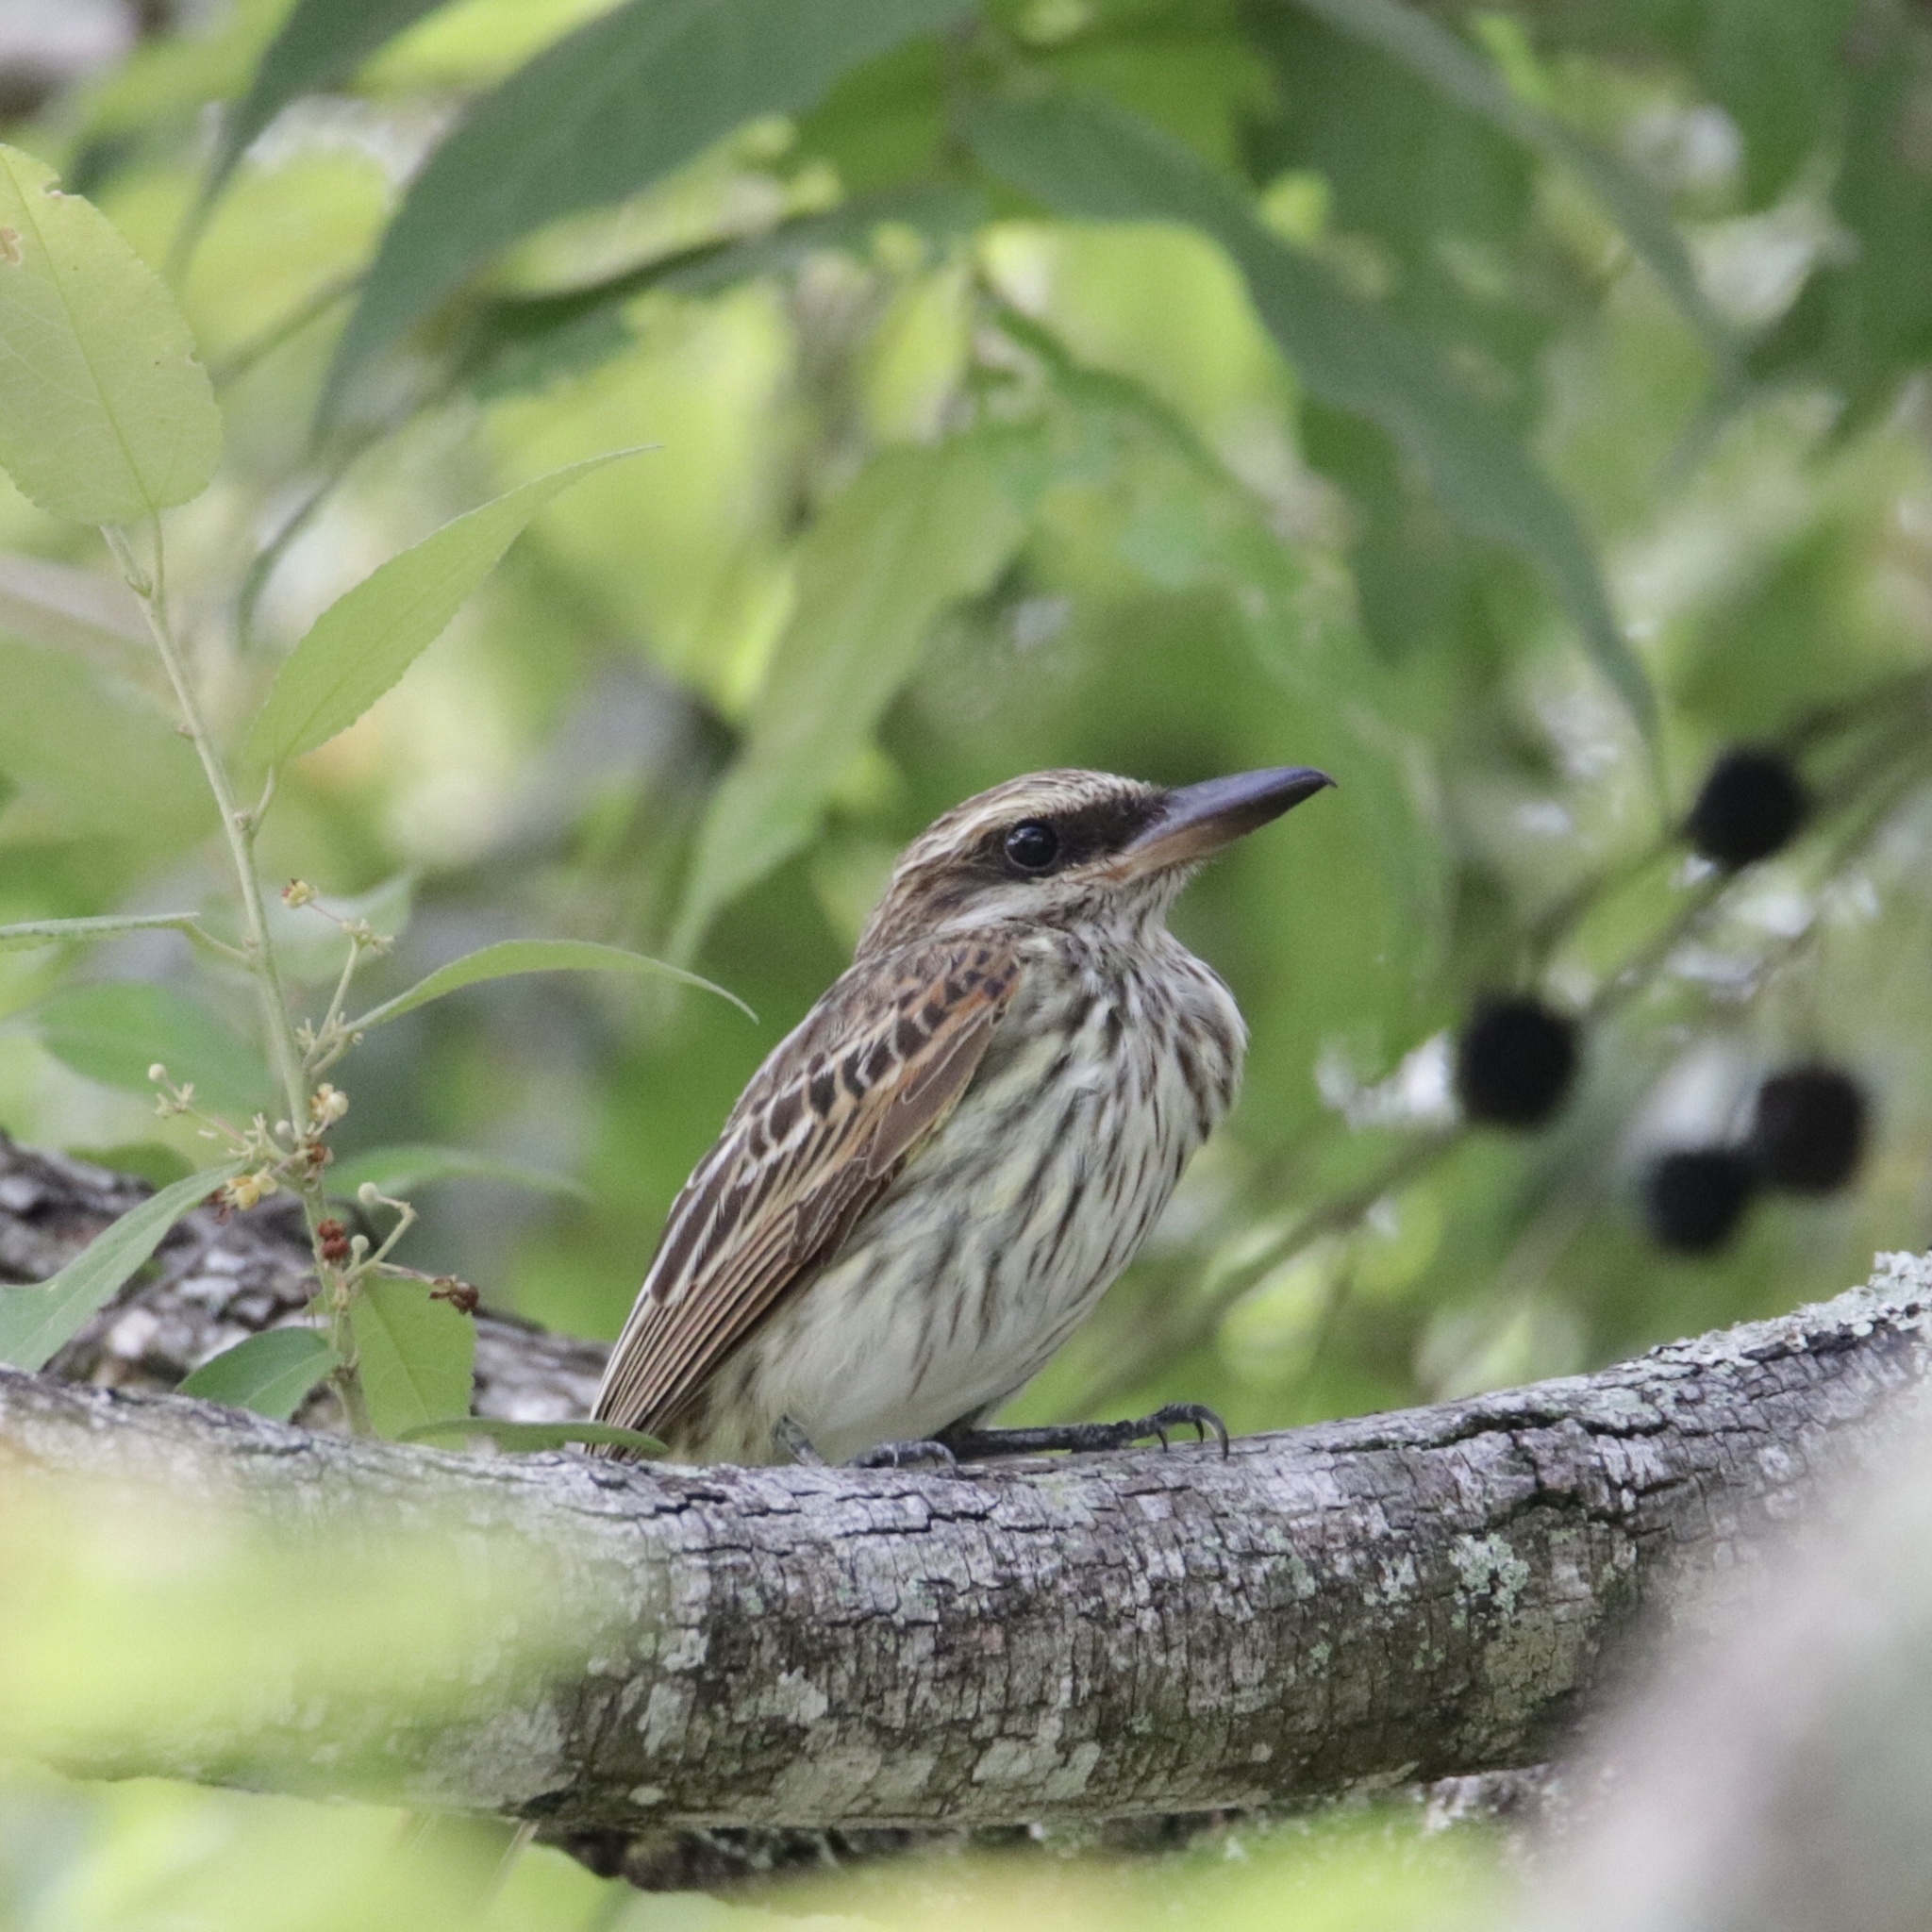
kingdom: Animalia
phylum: Chordata
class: Aves
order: Passeriformes
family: Tyrannidae
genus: Myiodynastes
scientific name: Myiodynastes maculatus
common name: Streaked flycatcher
